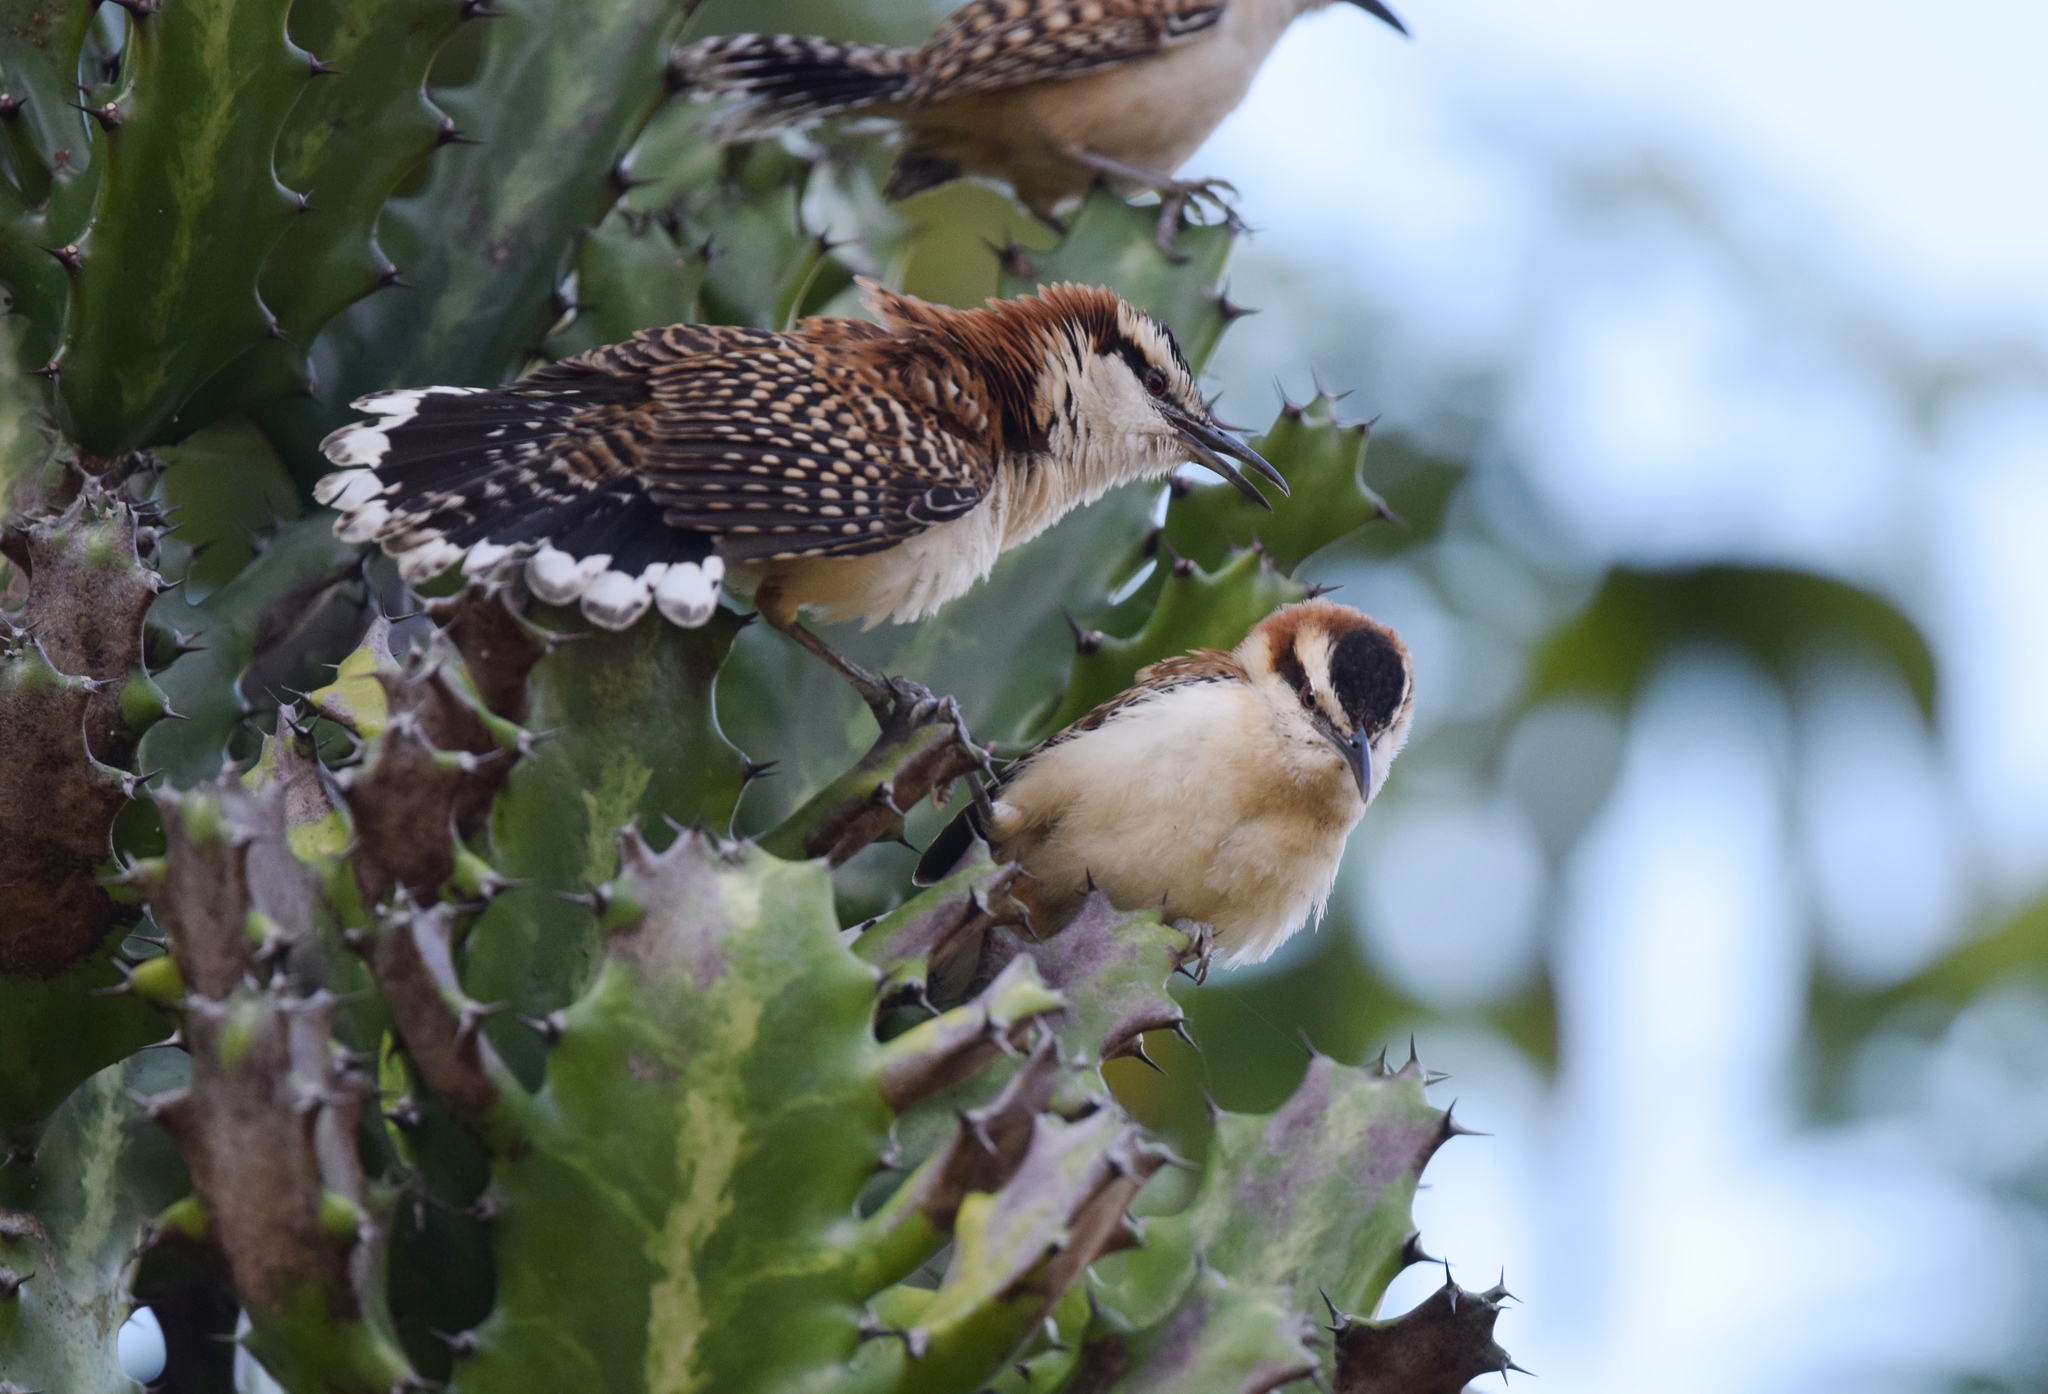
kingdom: Animalia
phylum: Chordata
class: Aves
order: Passeriformes
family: Troglodytidae
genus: Campylorhynchus
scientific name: Campylorhynchus rufinucha
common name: Rufous-naped wren
